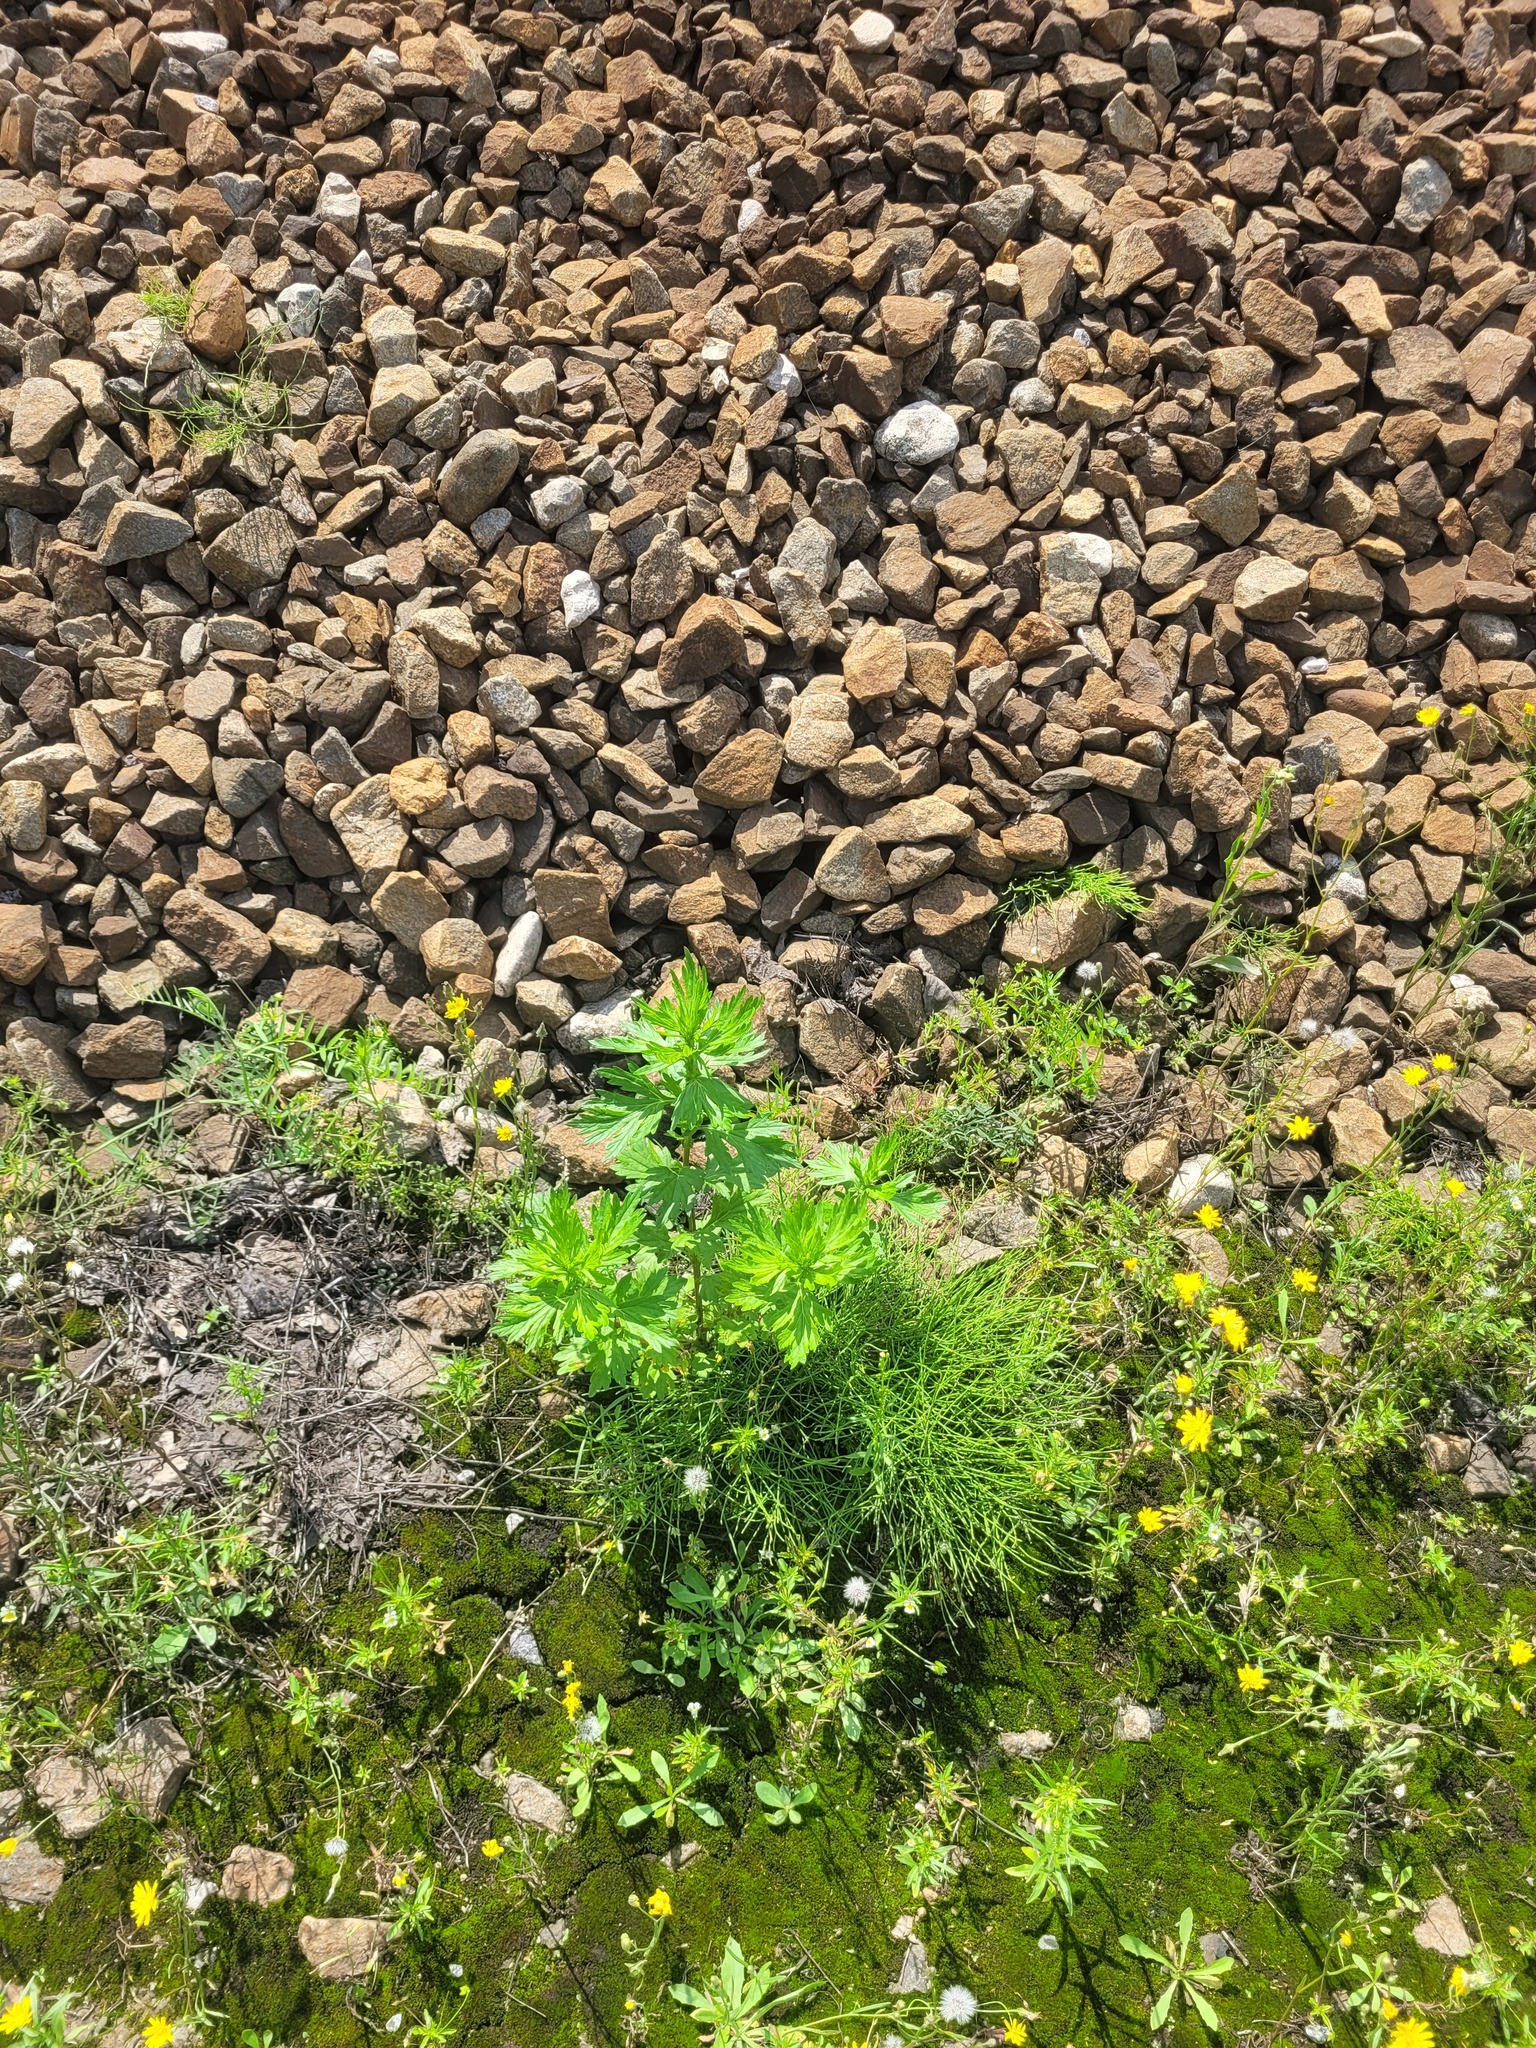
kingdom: Plantae
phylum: Tracheophyta
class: Magnoliopsida
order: Asterales
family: Asteraceae
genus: Artemisia
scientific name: Artemisia vulgaris
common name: Mugwort
